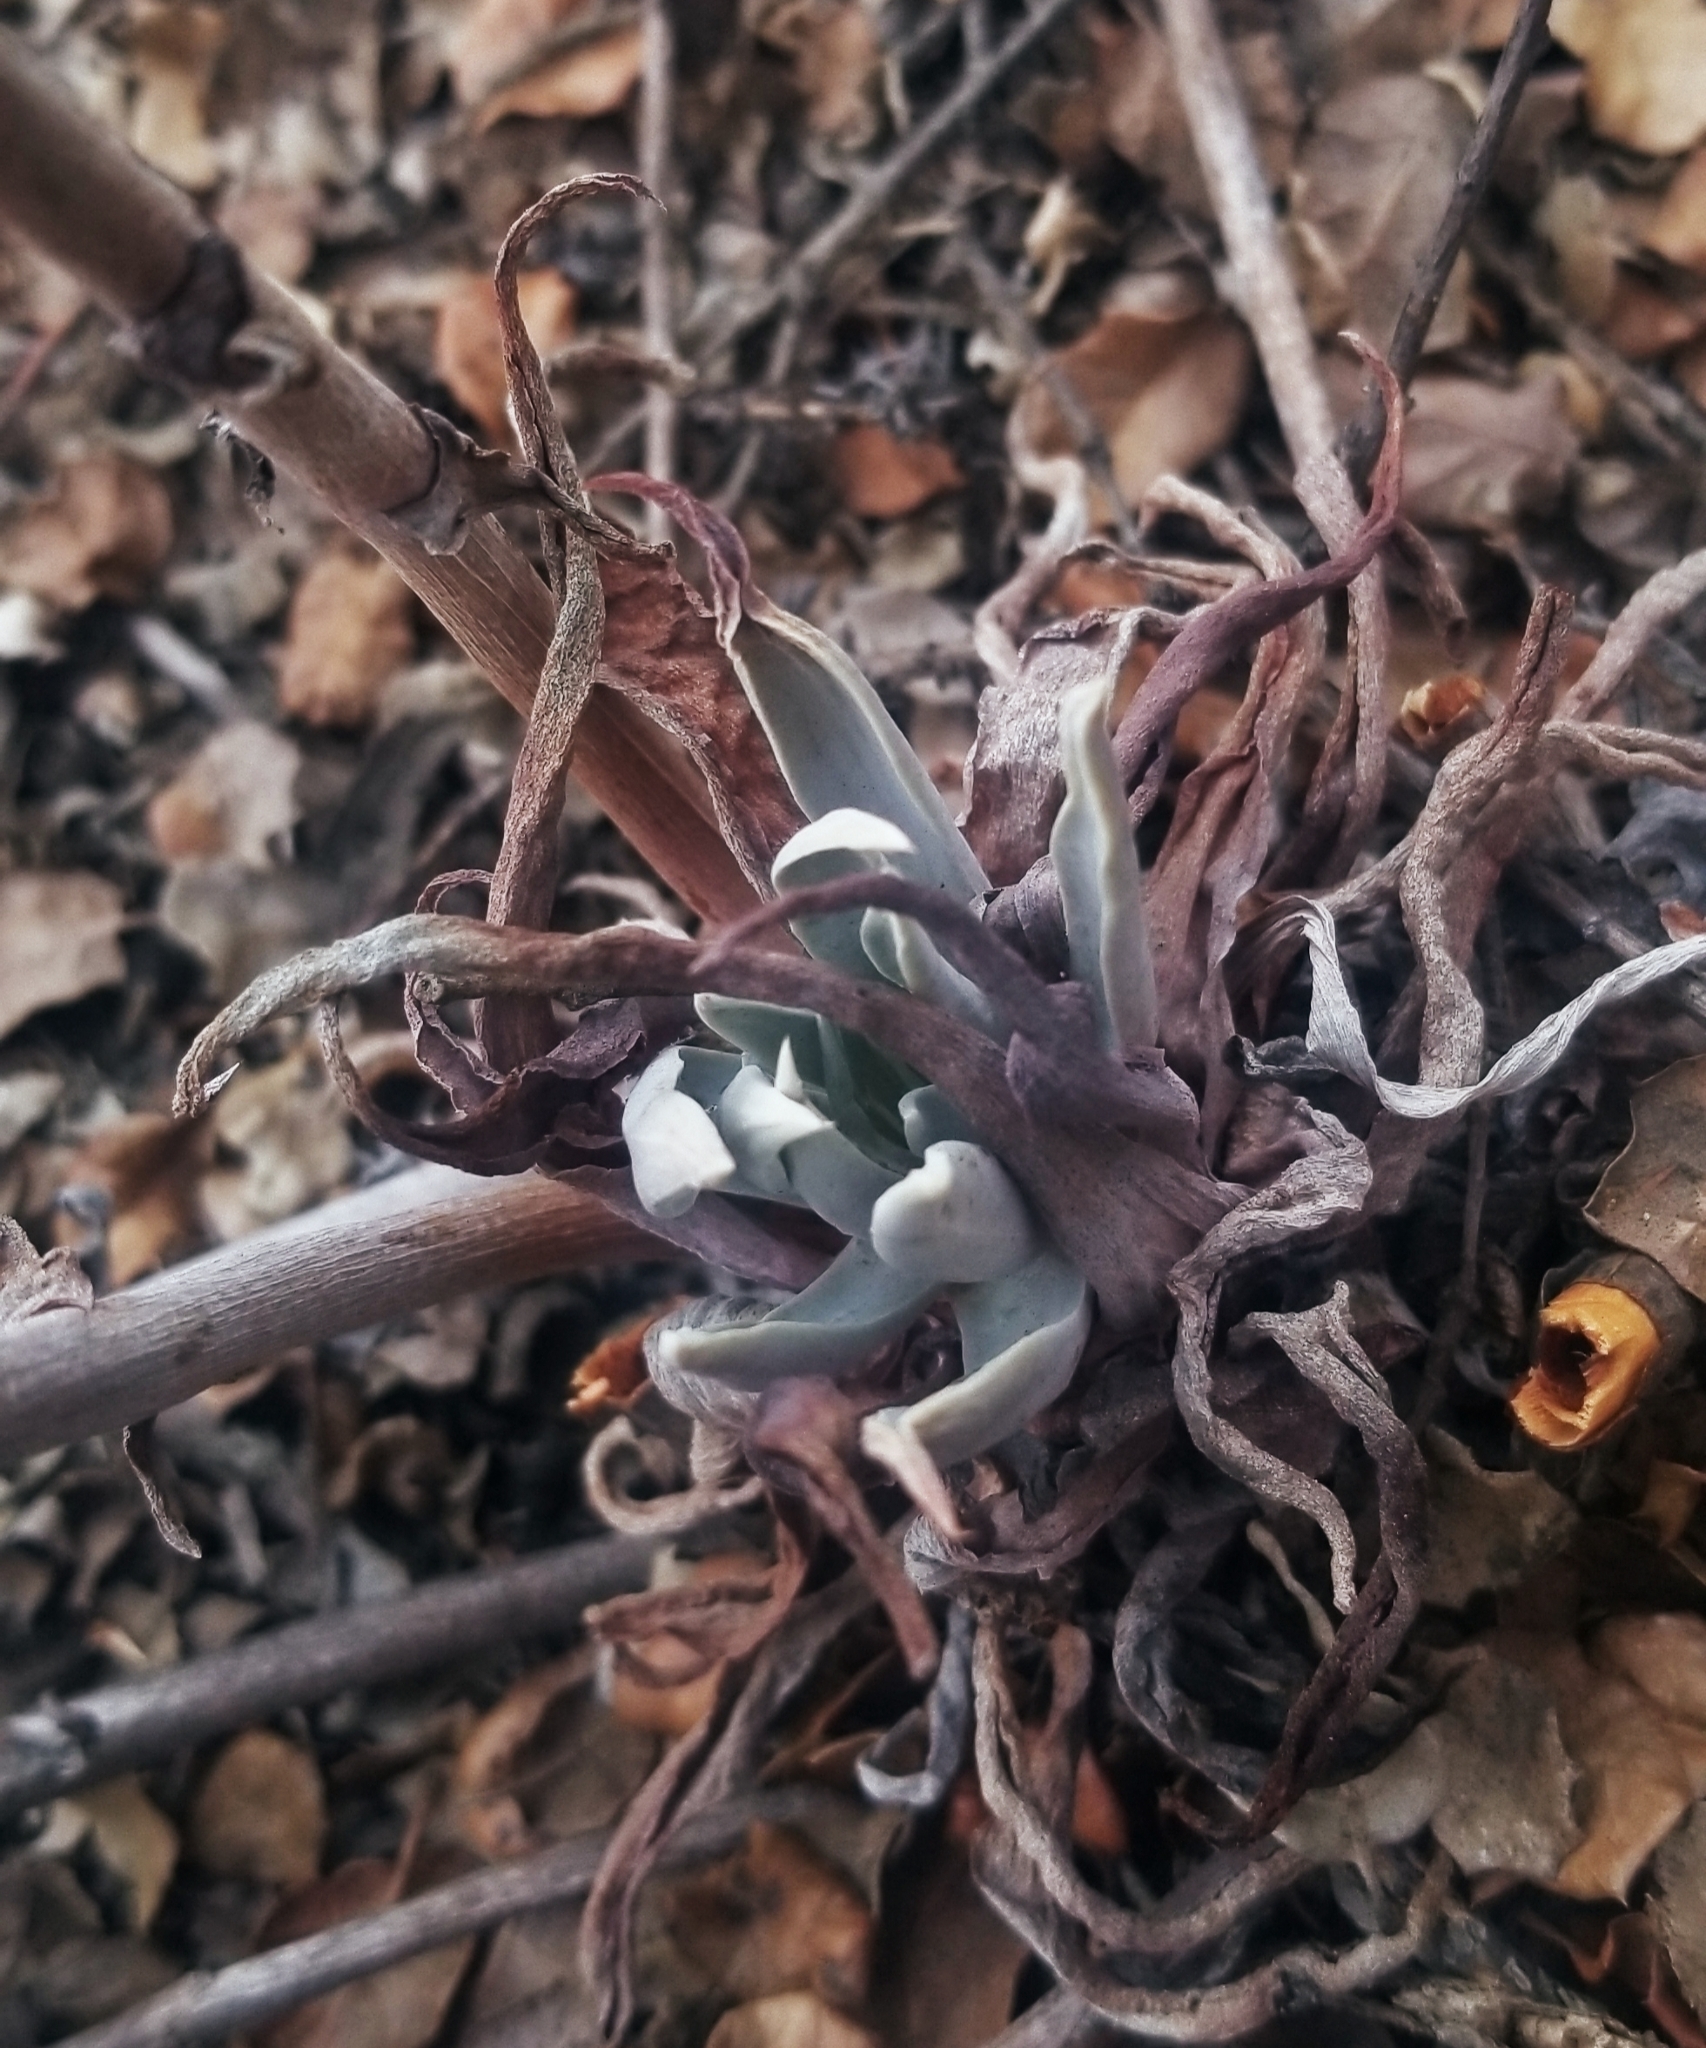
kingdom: Plantae
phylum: Tracheophyta
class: Magnoliopsida
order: Saxifragales
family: Crassulaceae
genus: Dudleya
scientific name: Dudleya lanceolata
